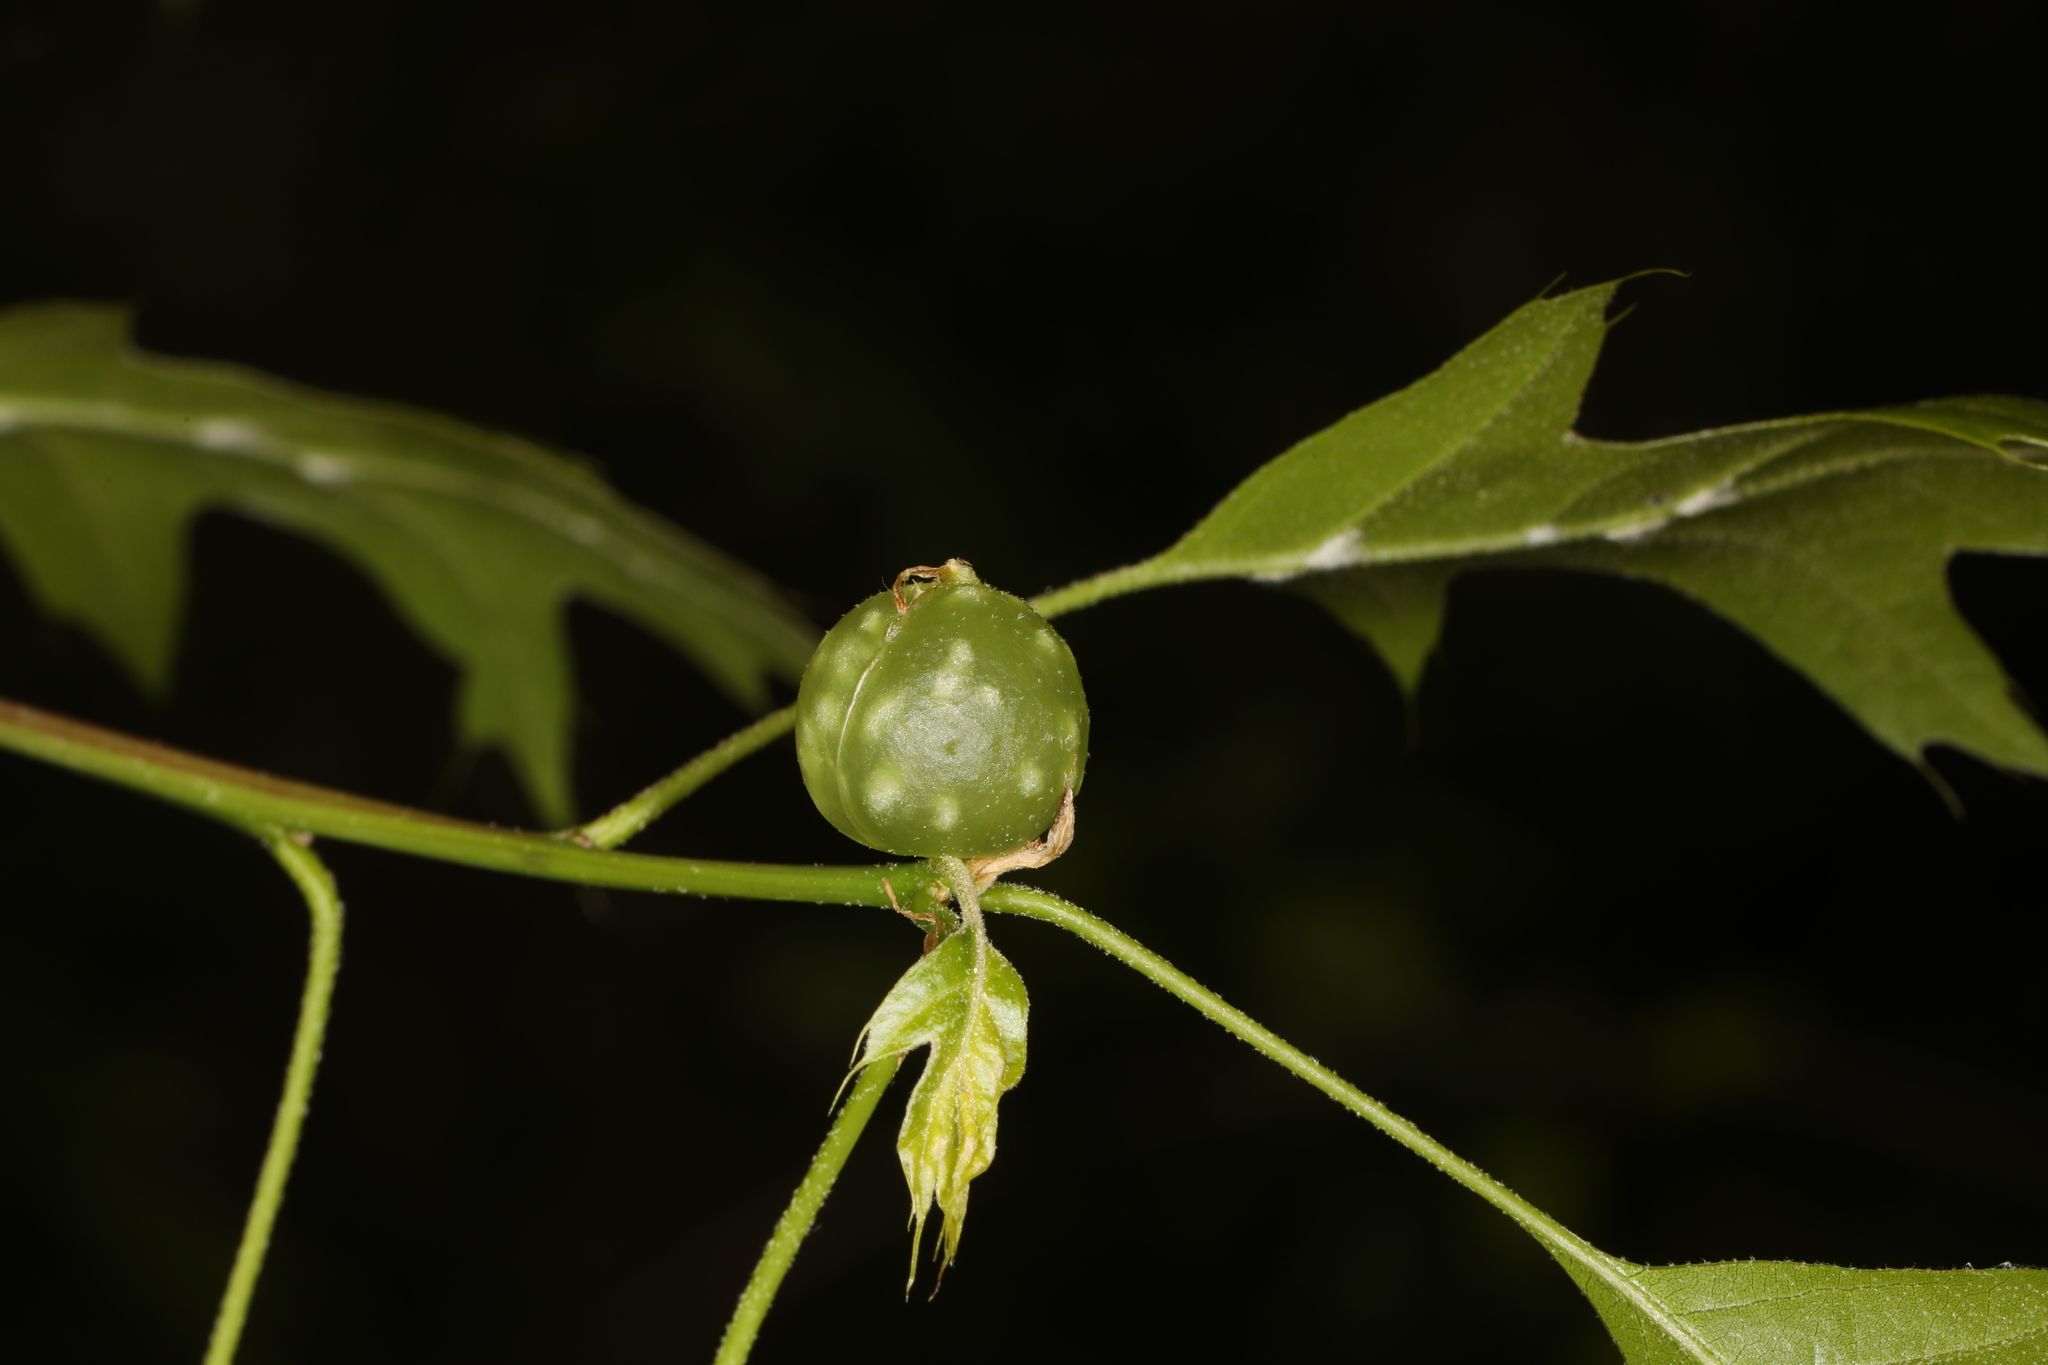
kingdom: Animalia
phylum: Arthropoda
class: Insecta
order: Hymenoptera
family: Cynipidae
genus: Dryocosmus
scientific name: Dryocosmus quercuspalustris
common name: Succulent oak gall wasp
